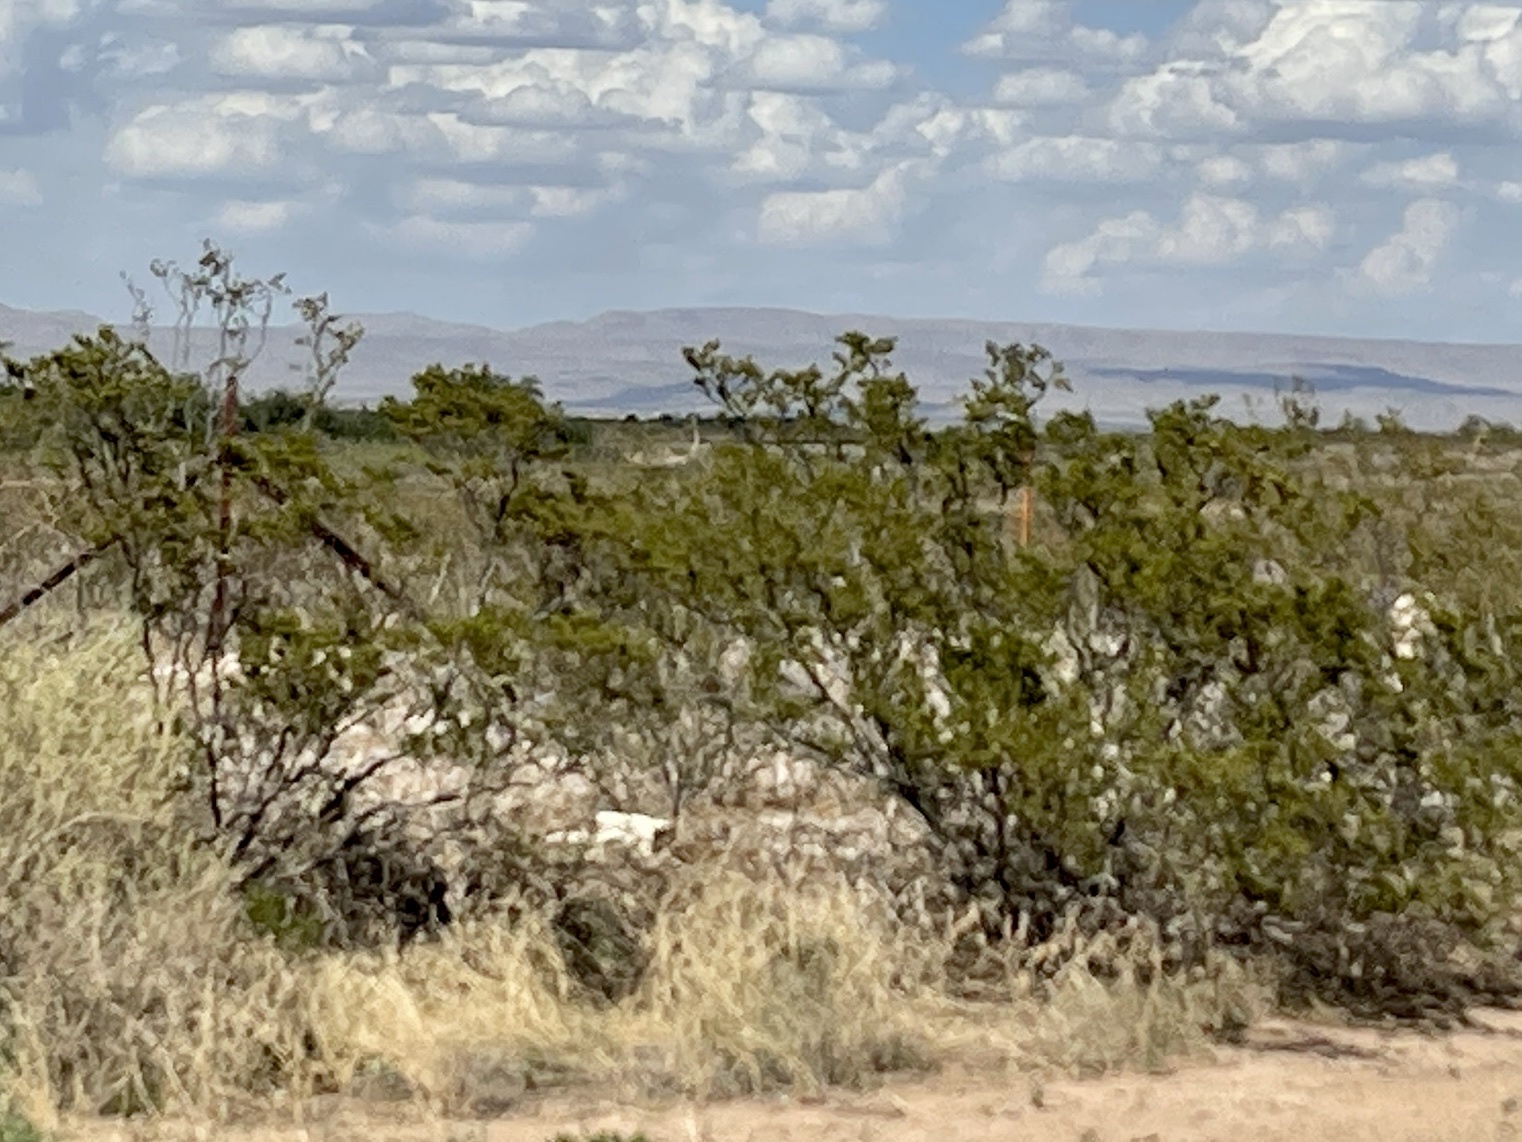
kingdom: Plantae
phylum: Tracheophyta
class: Magnoliopsida
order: Zygophyllales
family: Zygophyllaceae
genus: Larrea
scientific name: Larrea tridentata
